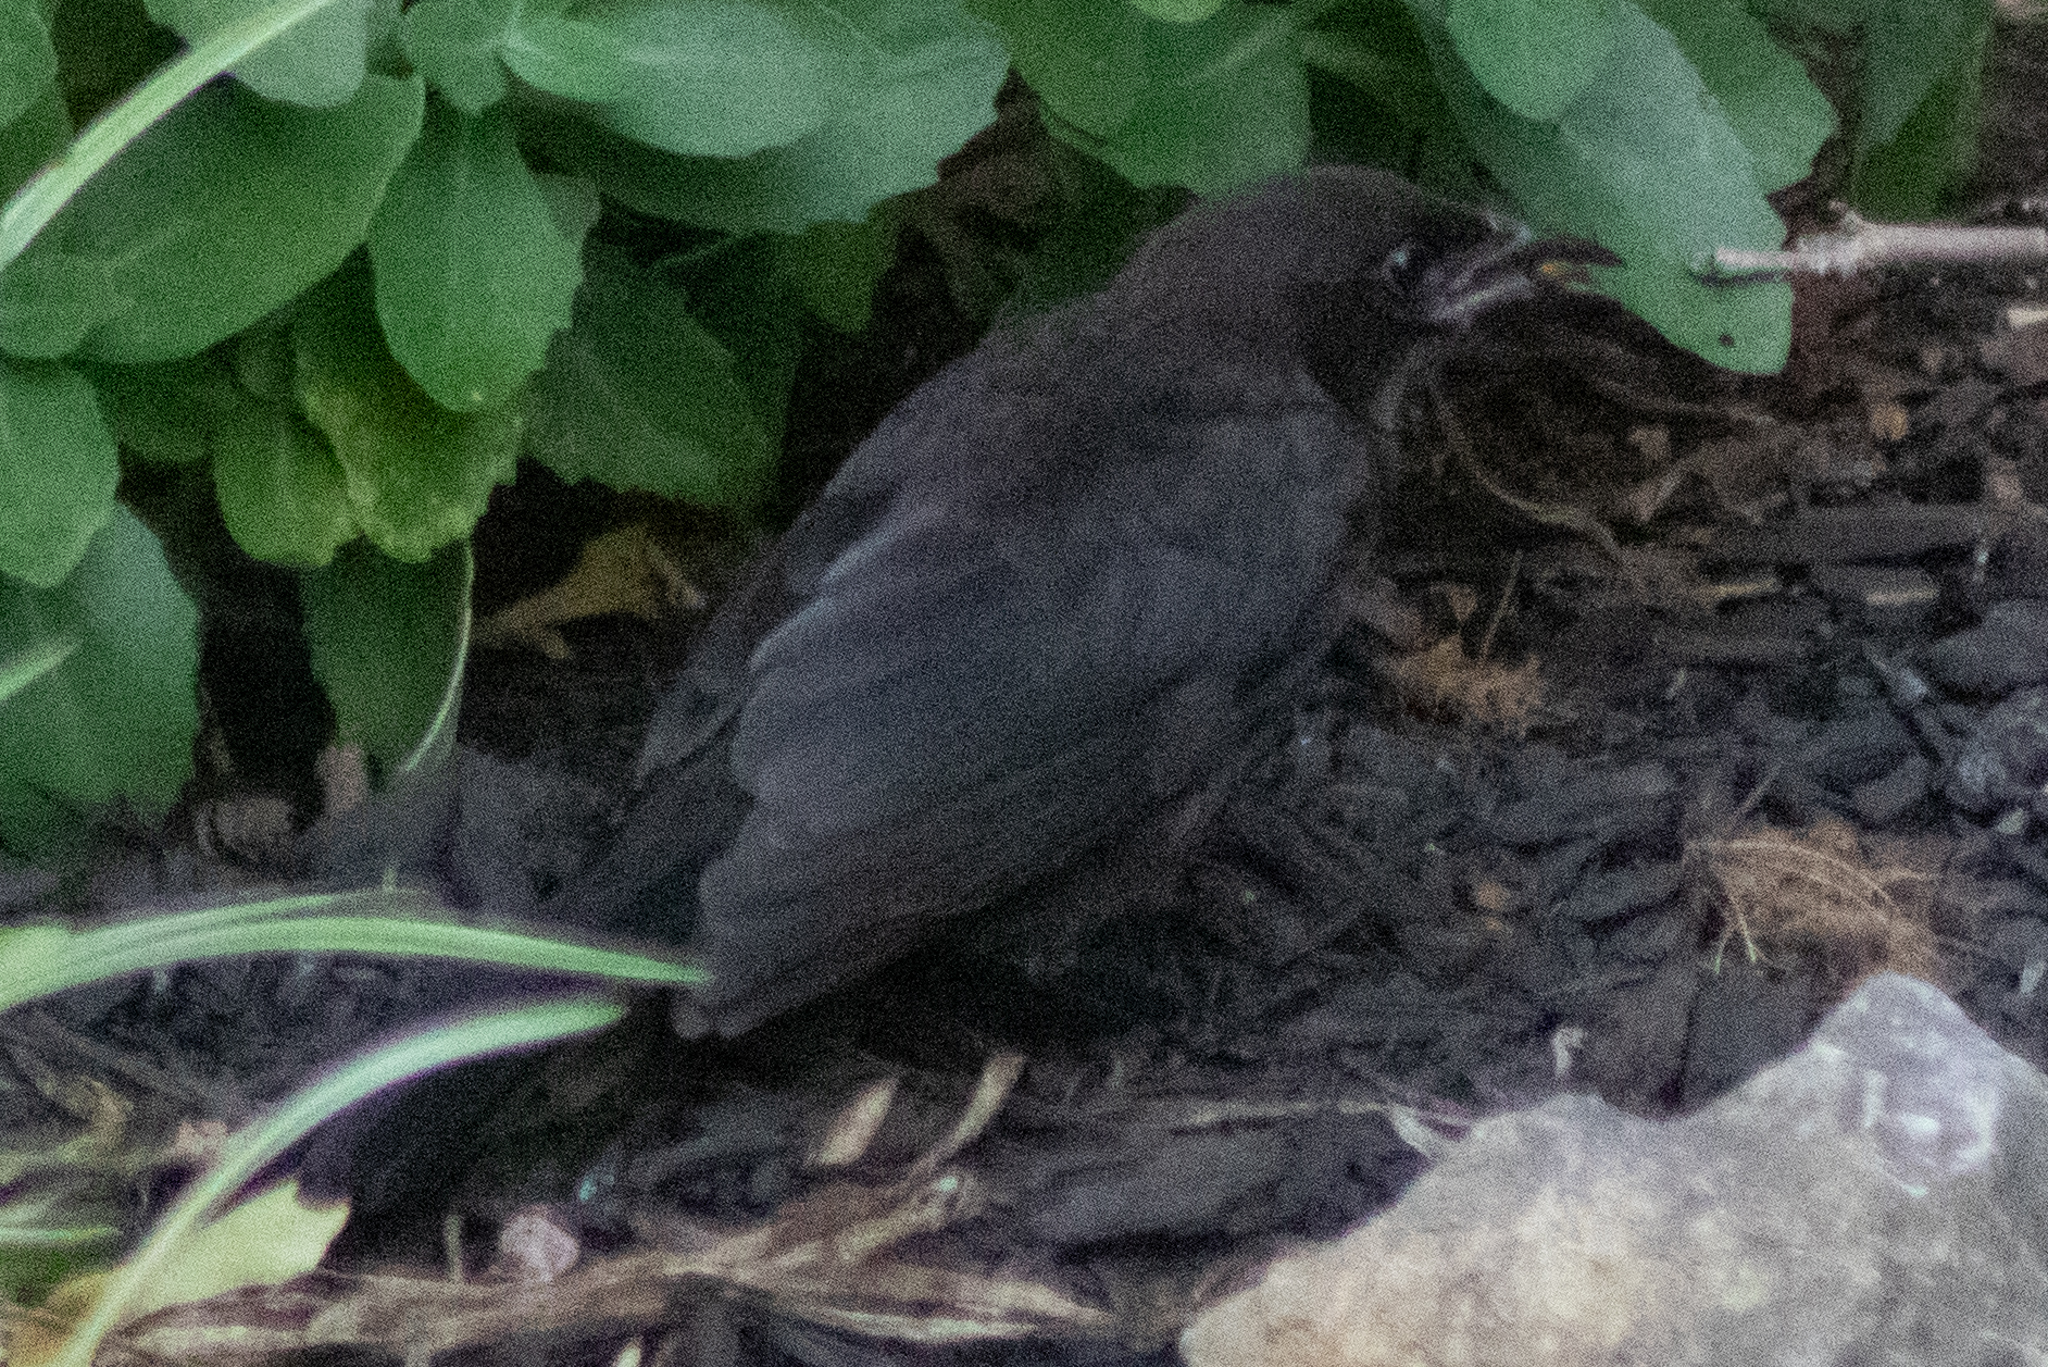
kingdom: Animalia
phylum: Chordata
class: Aves
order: Passeriformes
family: Icteridae
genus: Quiscalus
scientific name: Quiscalus quiscula
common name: Common grackle
